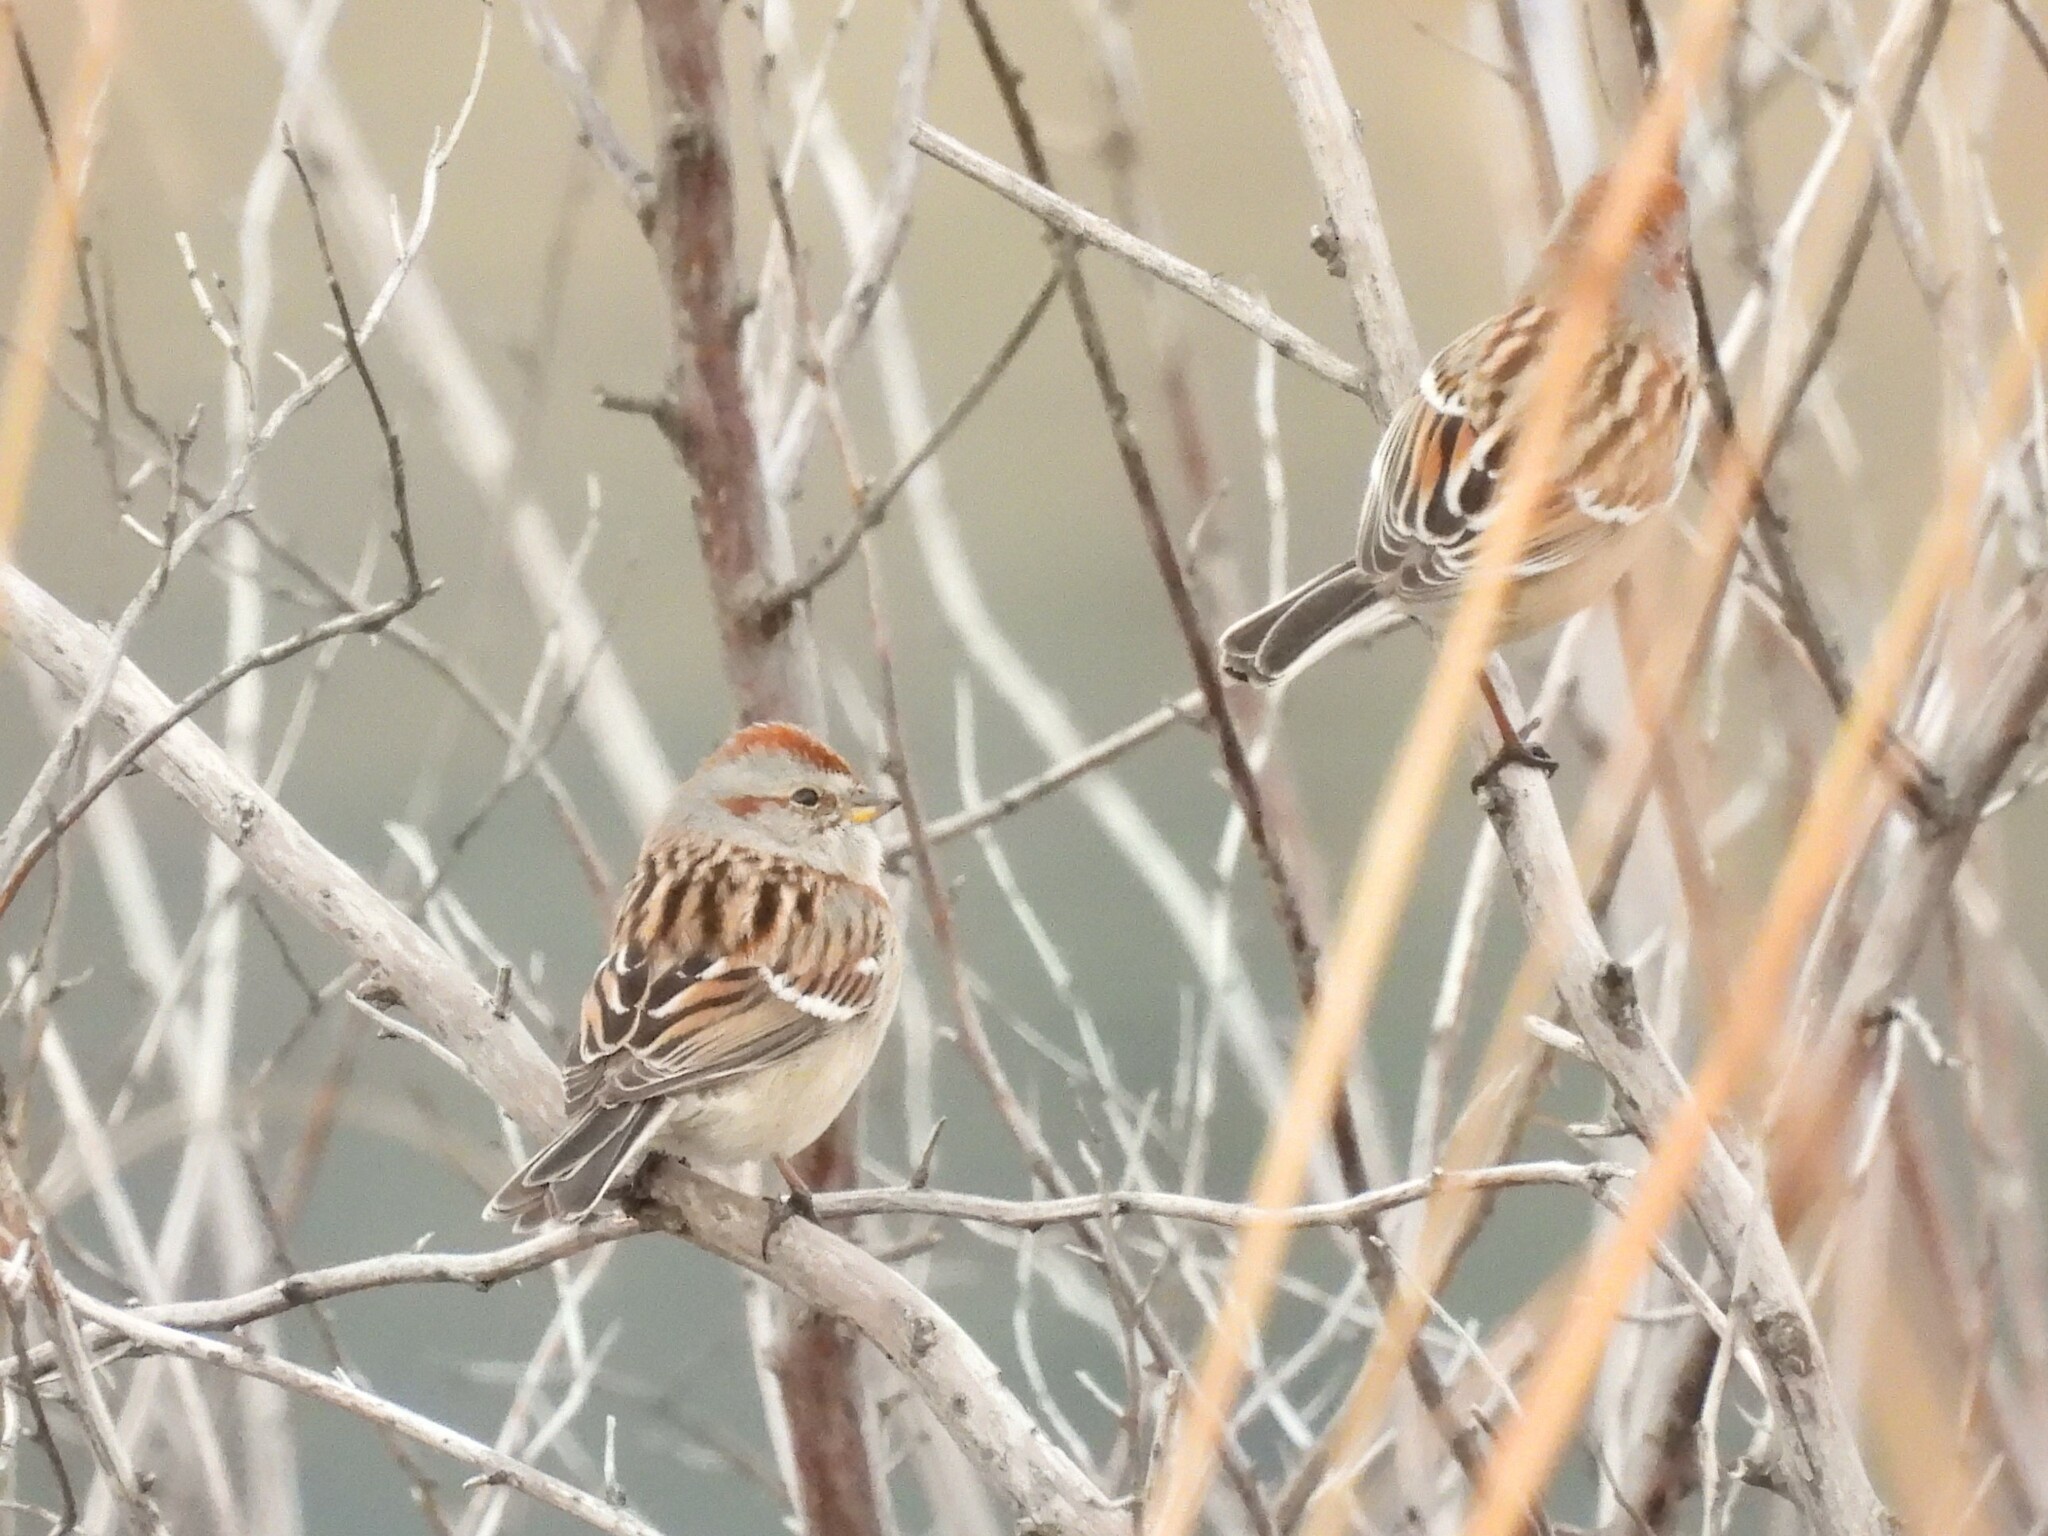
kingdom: Animalia
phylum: Chordata
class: Aves
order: Passeriformes
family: Passerellidae
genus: Spizelloides
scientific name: Spizelloides arborea
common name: American tree sparrow
